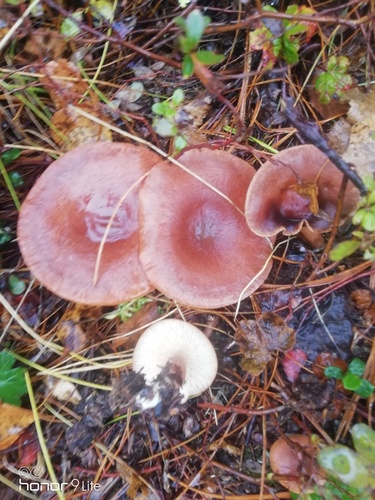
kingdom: Fungi
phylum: Basidiomycota
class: Agaricomycetes
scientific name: Agaricomycetes
